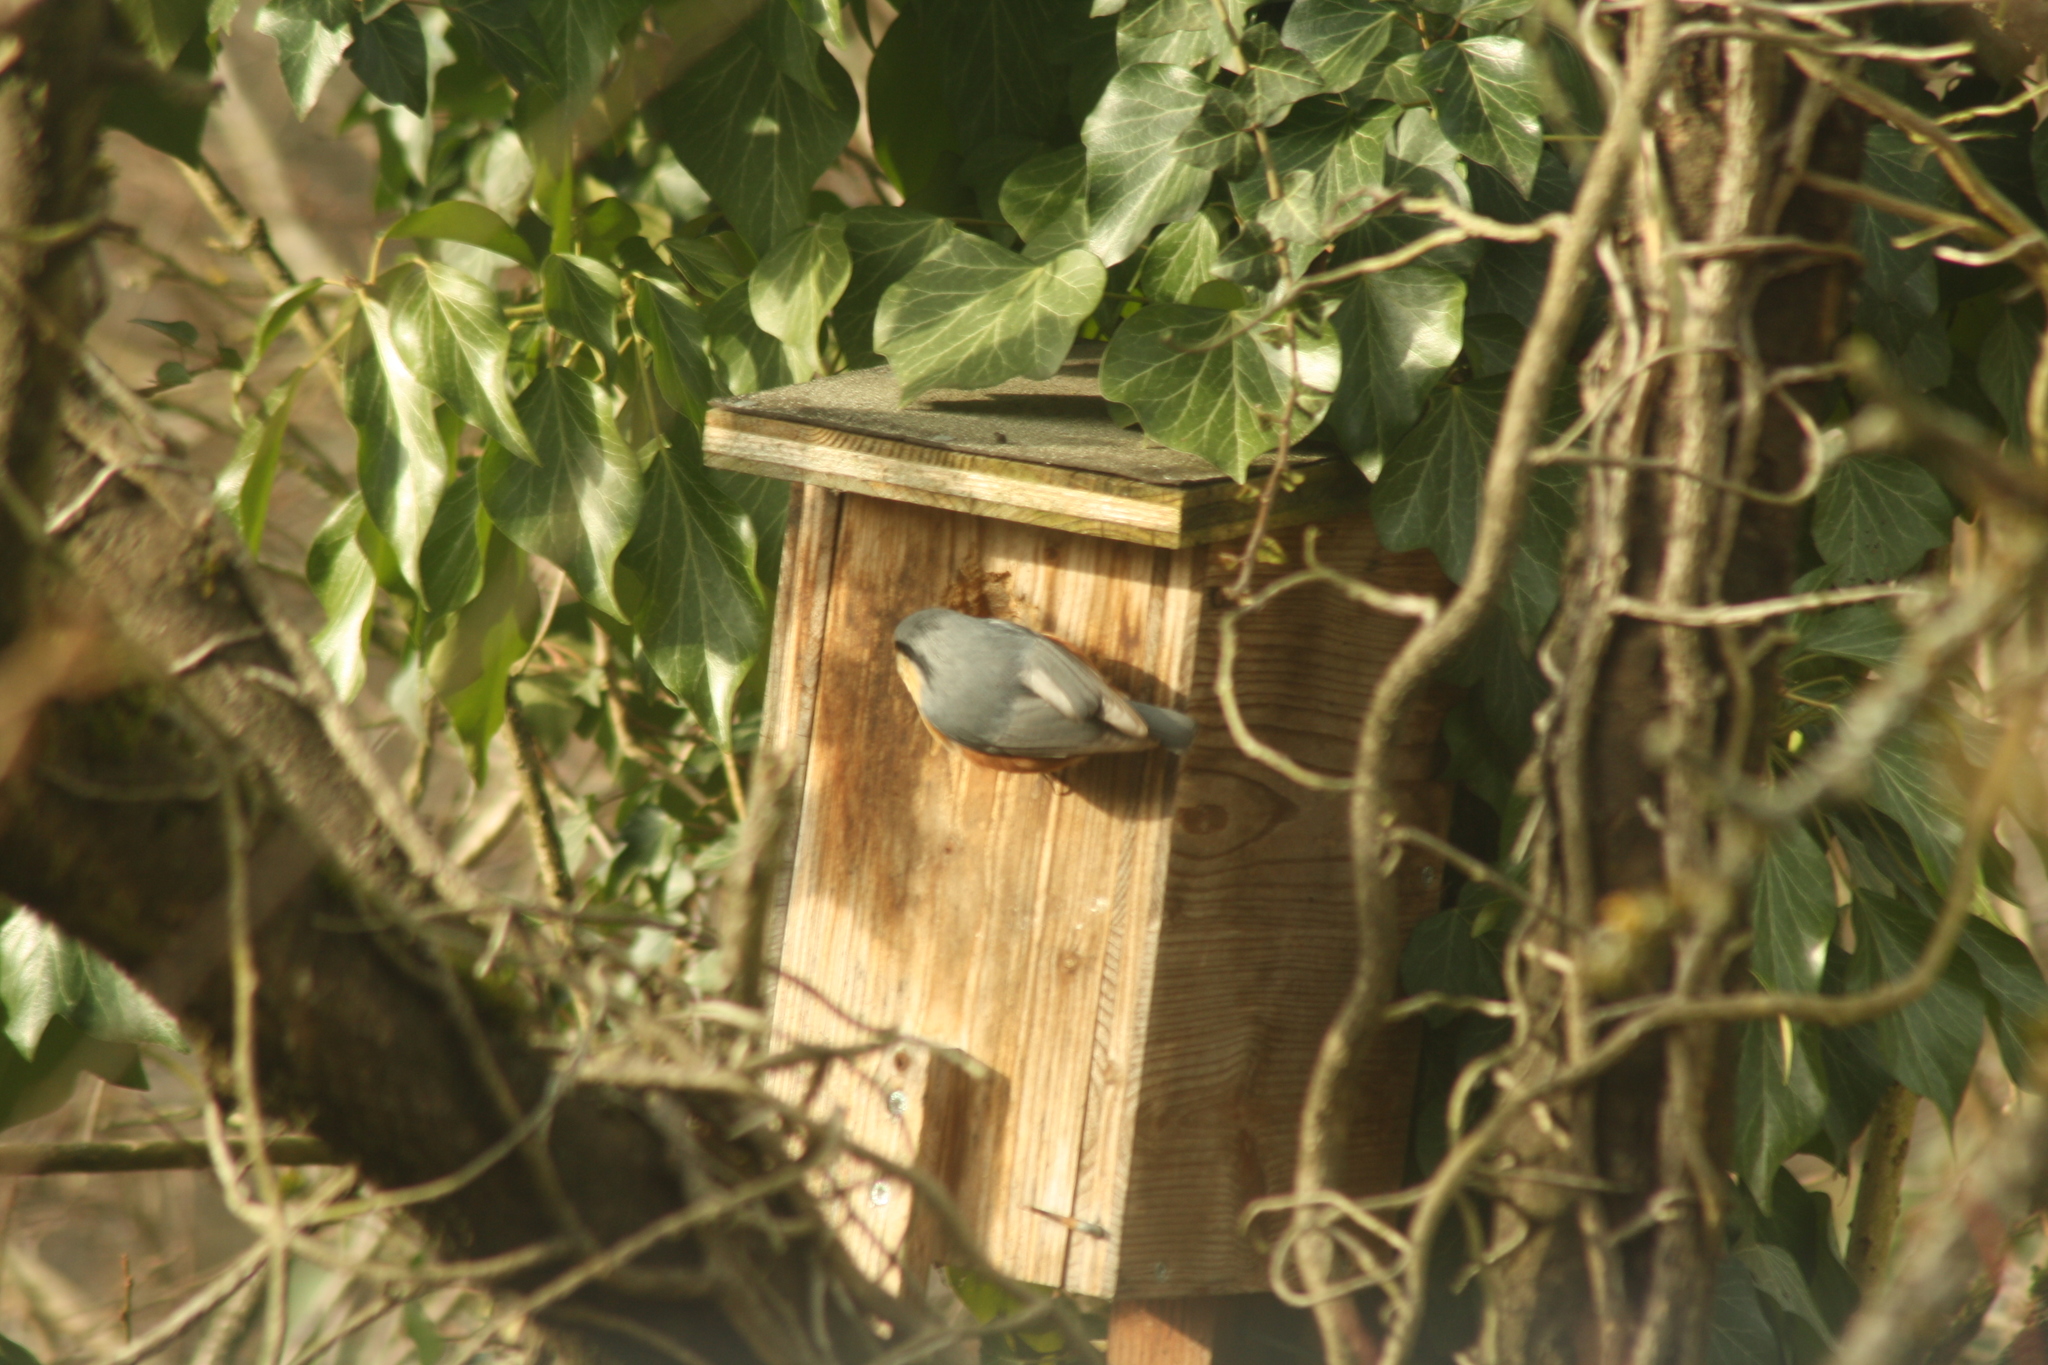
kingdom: Animalia
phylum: Chordata
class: Aves
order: Passeriformes
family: Sittidae
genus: Sitta
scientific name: Sitta europaea
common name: Eurasian nuthatch
